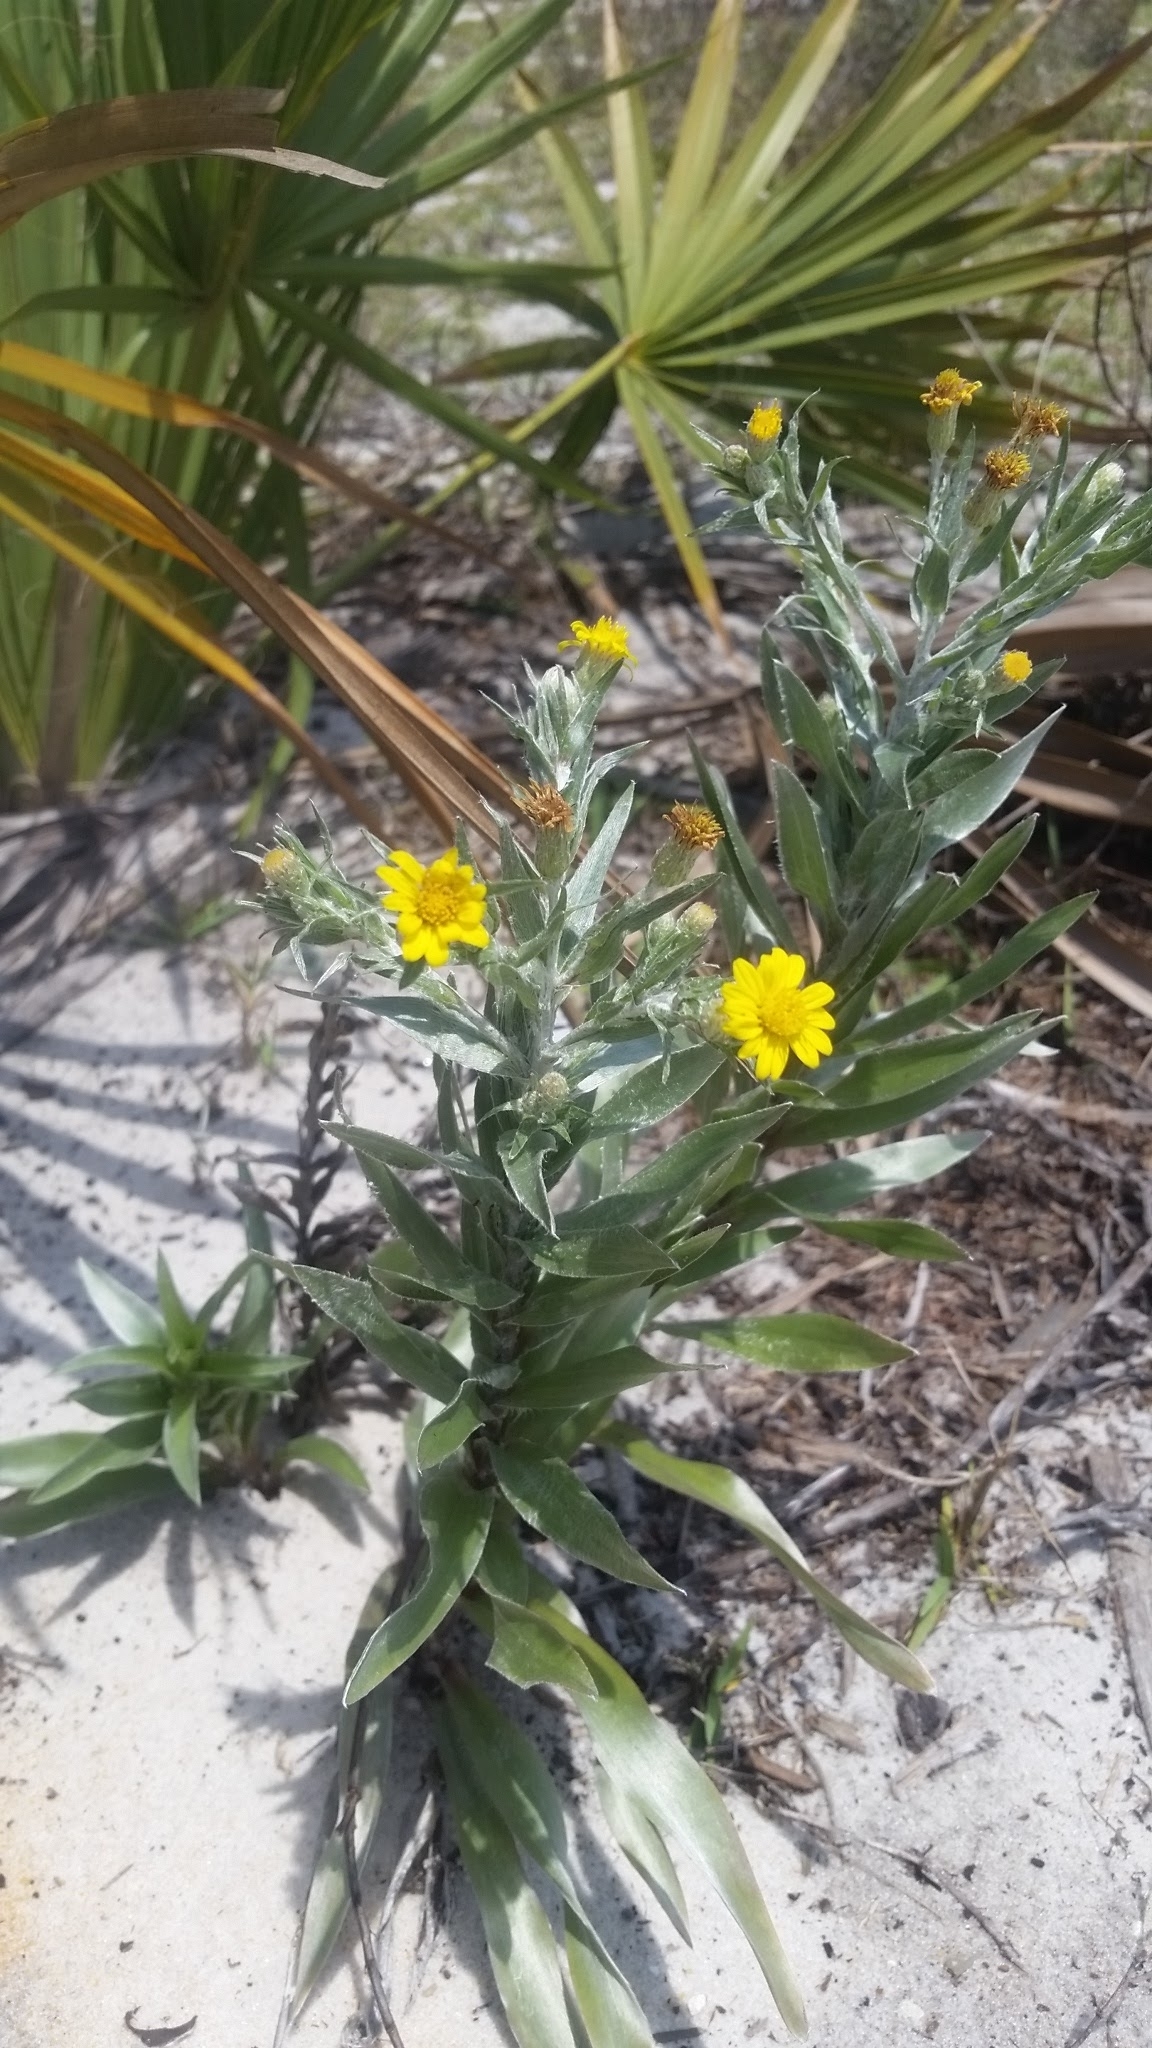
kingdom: Plantae
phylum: Tracheophyta
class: Magnoliopsida
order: Asterales
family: Asteraceae
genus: Pityopsis
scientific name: Pityopsis graminifolia
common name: Grass-leaf golden-aster
